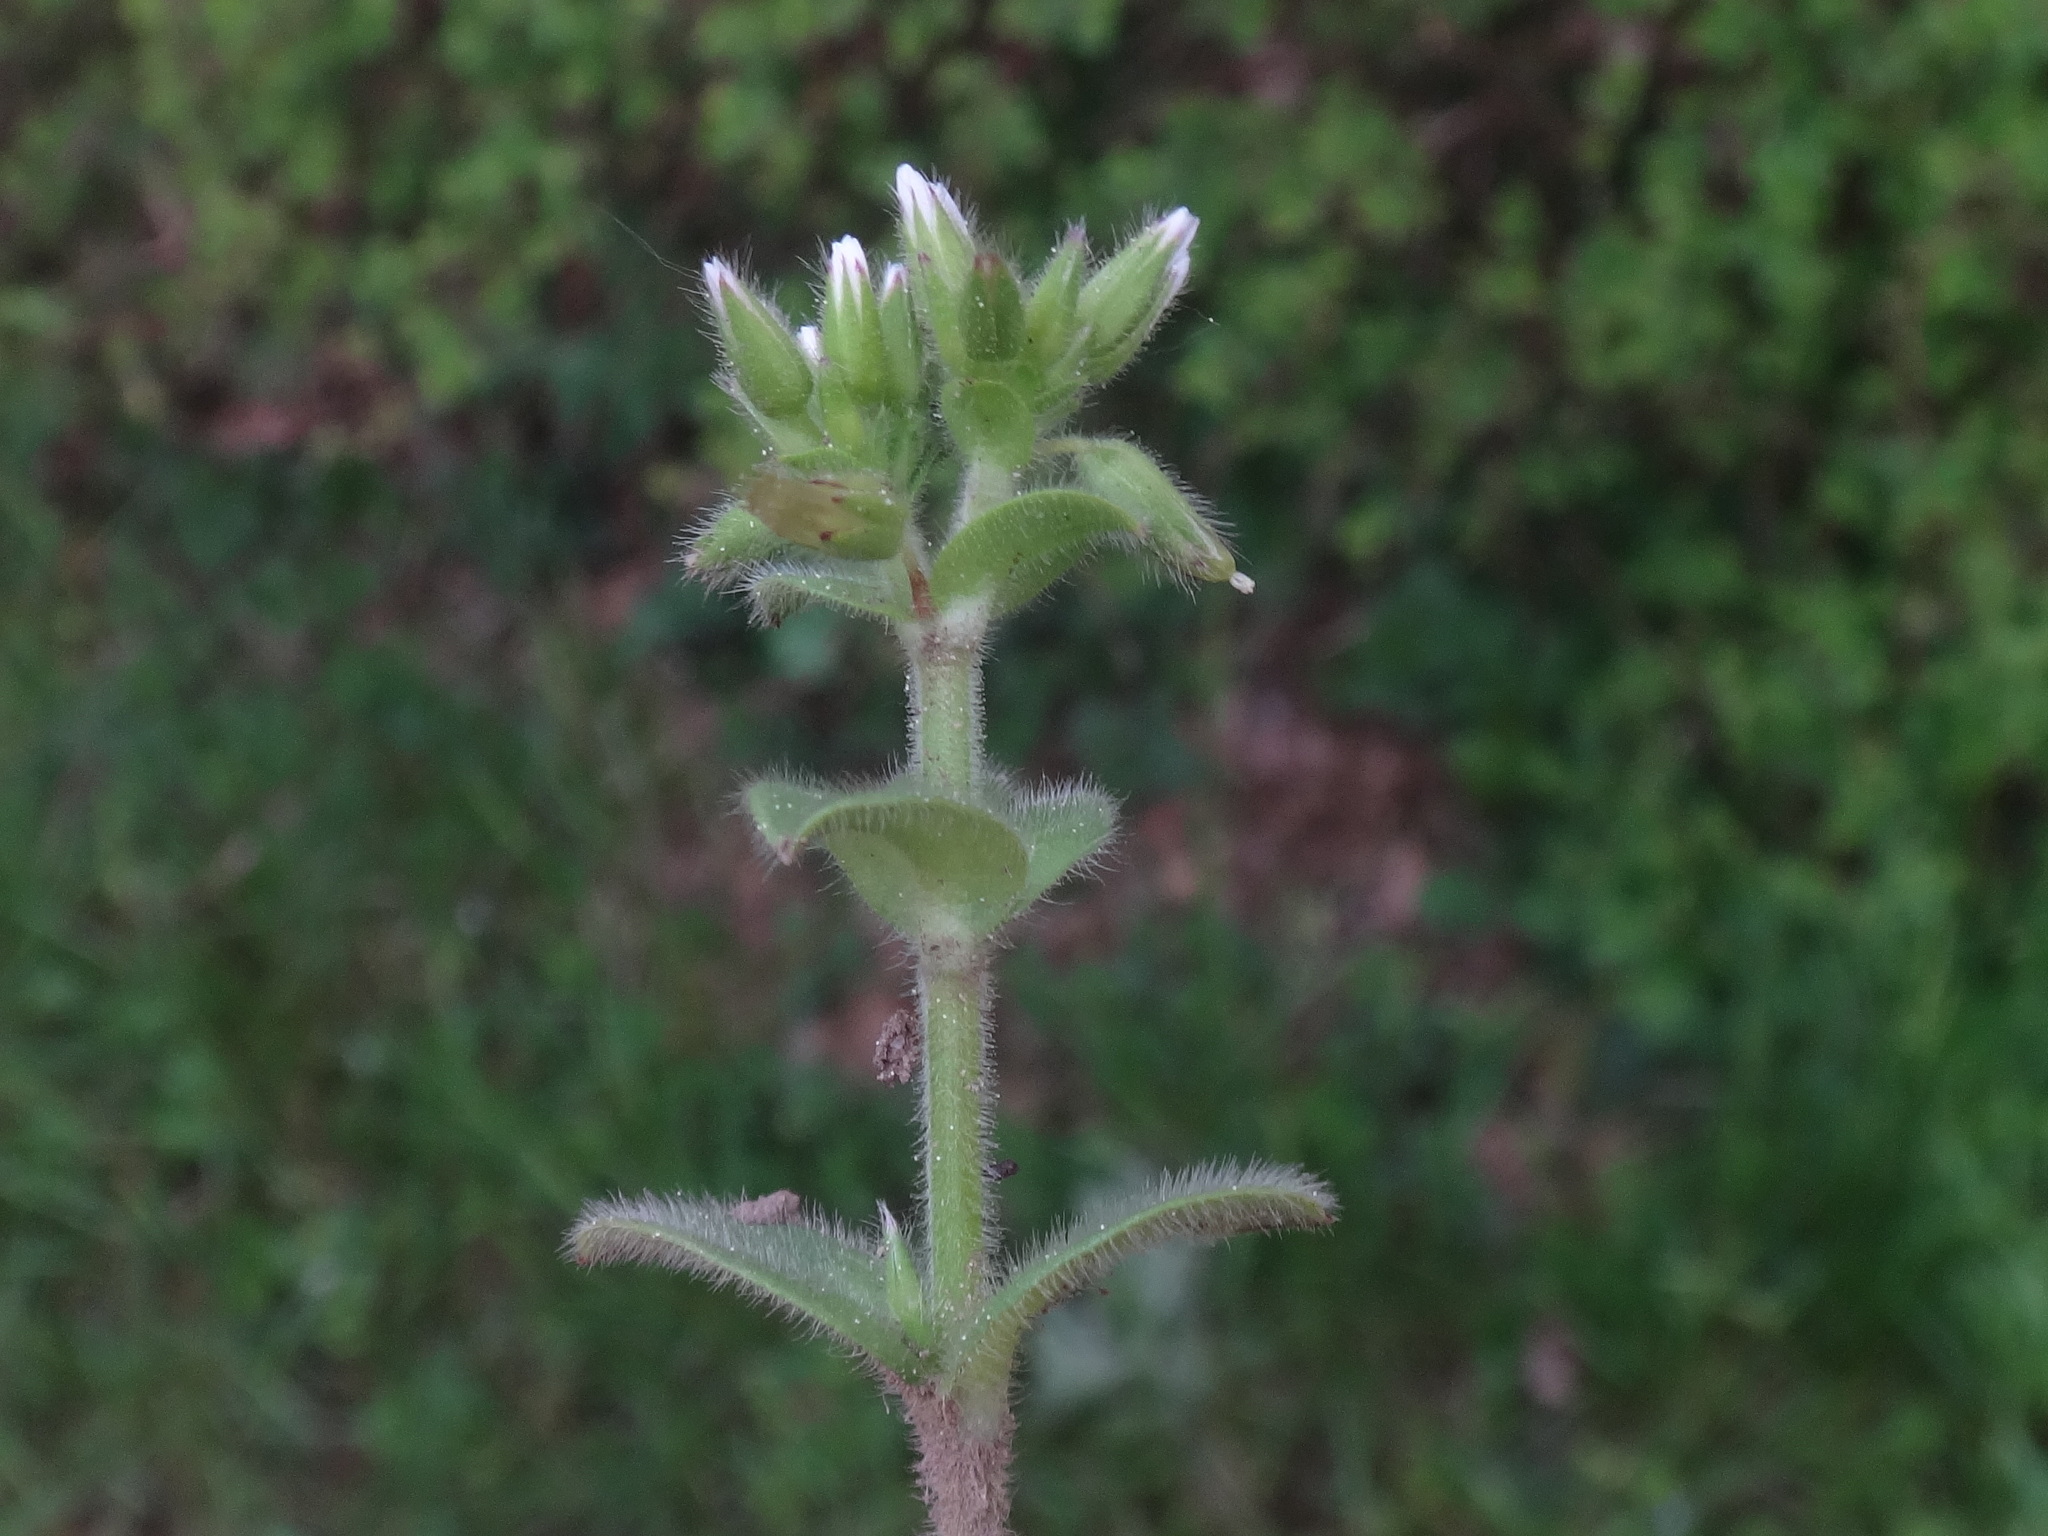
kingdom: Plantae
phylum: Tracheophyta
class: Magnoliopsida
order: Caryophyllales
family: Caryophyllaceae
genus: Cerastium
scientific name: Cerastium glomeratum
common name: Sticky chickweed
